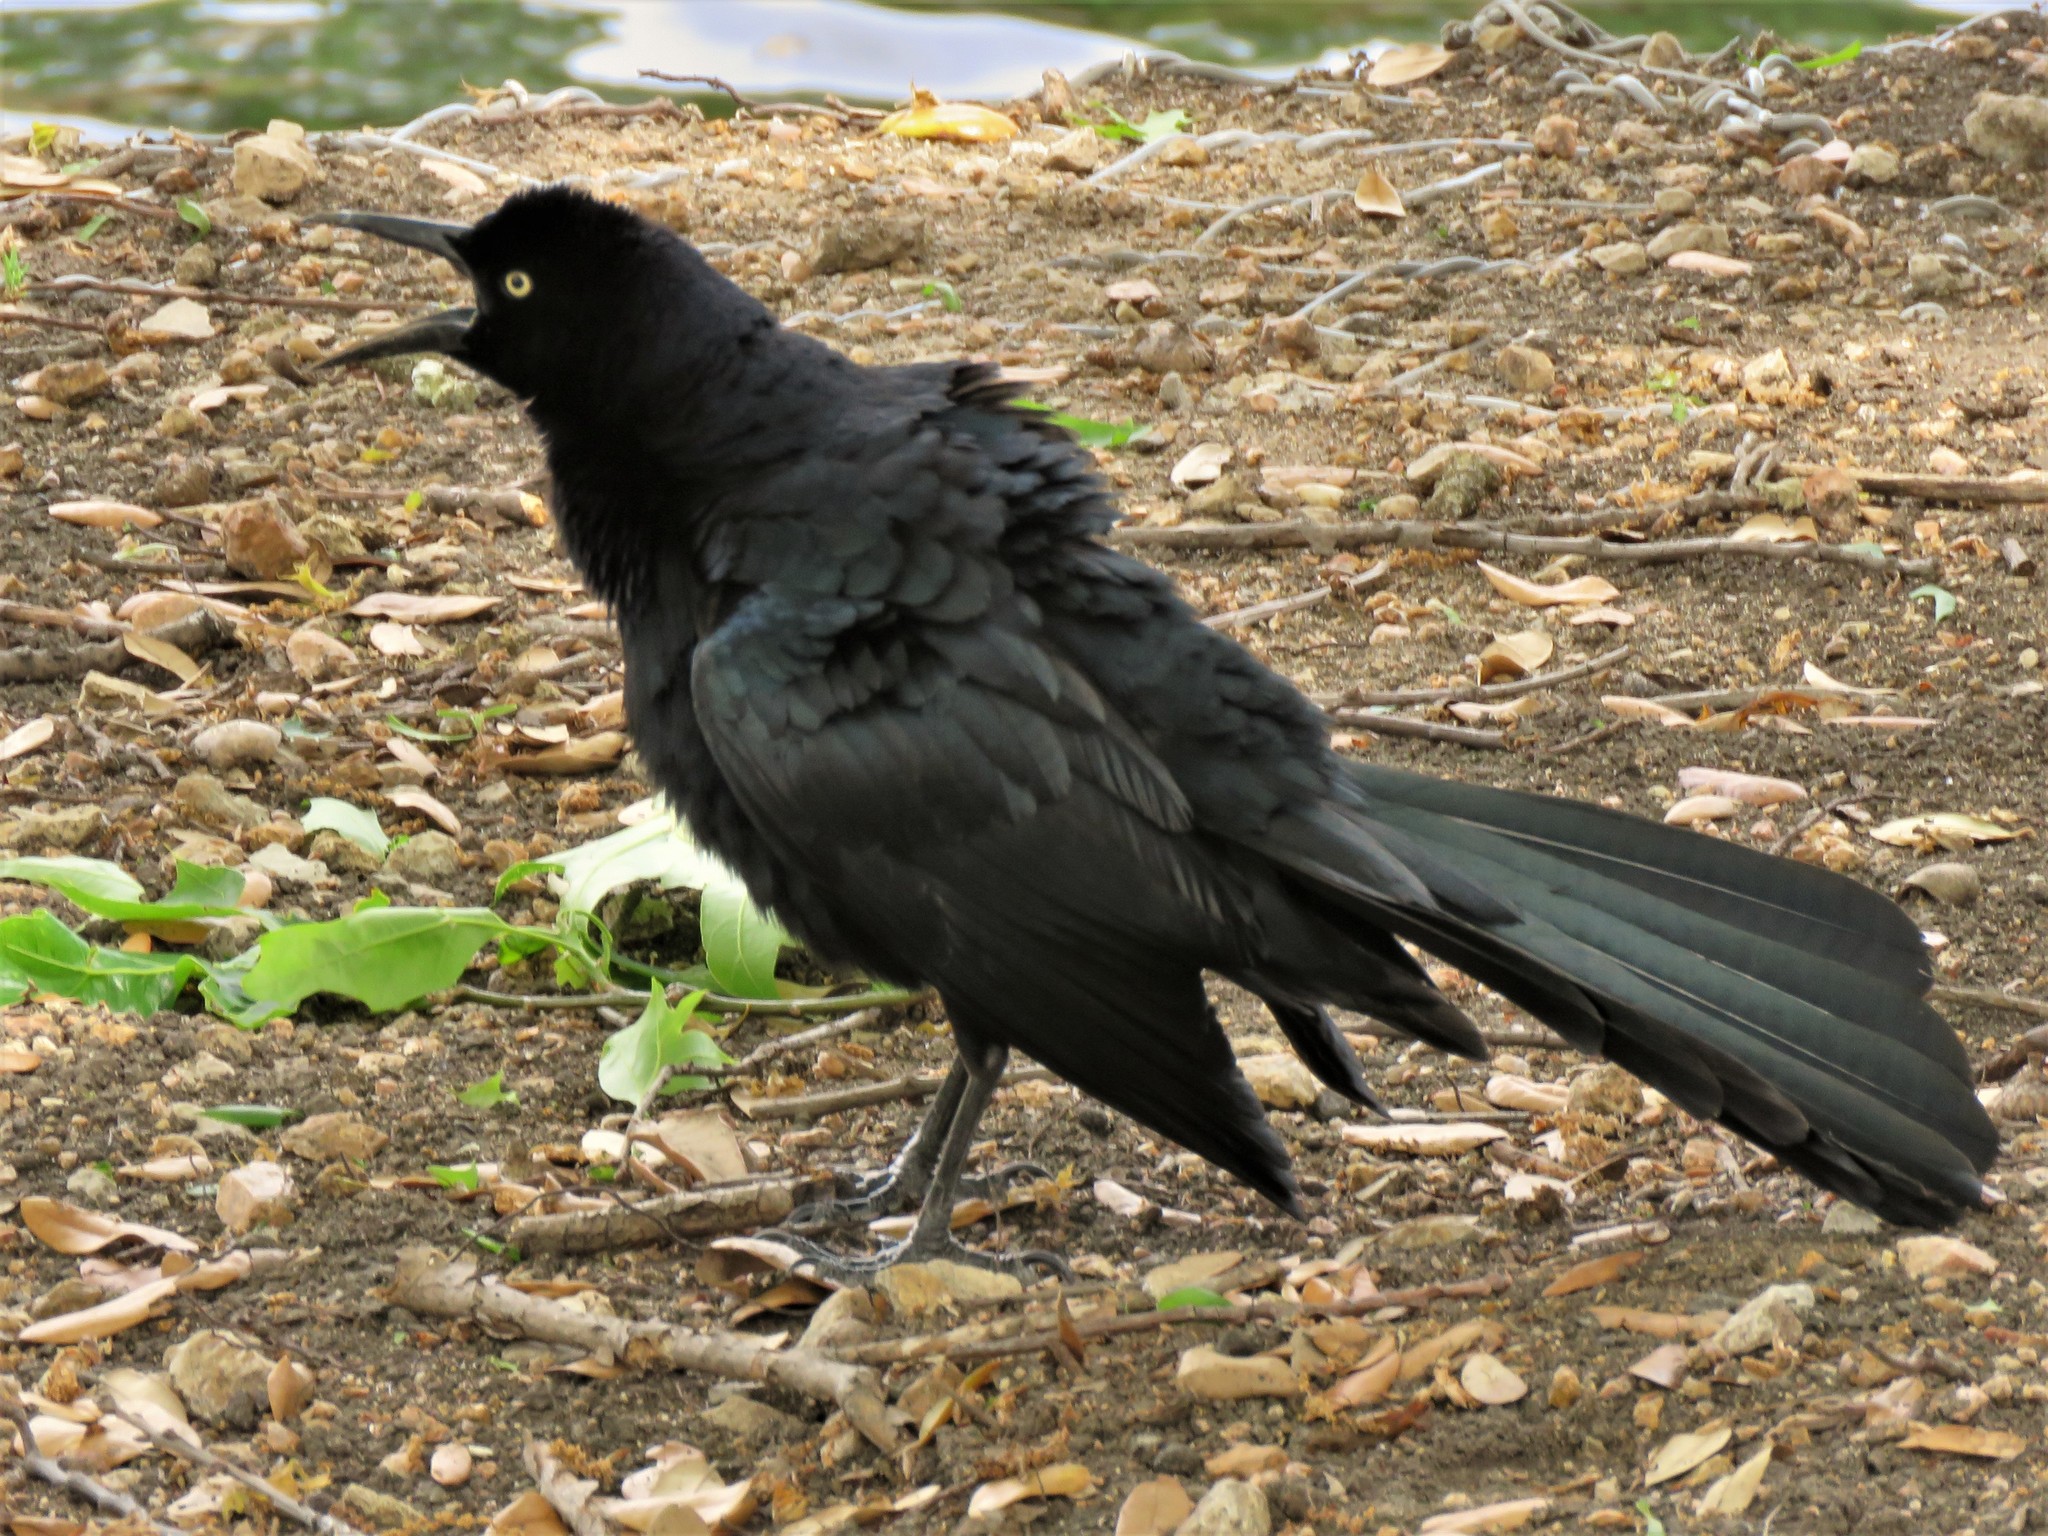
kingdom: Animalia
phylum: Chordata
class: Aves
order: Passeriformes
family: Icteridae
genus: Quiscalus
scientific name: Quiscalus mexicanus
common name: Great-tailed grackle
